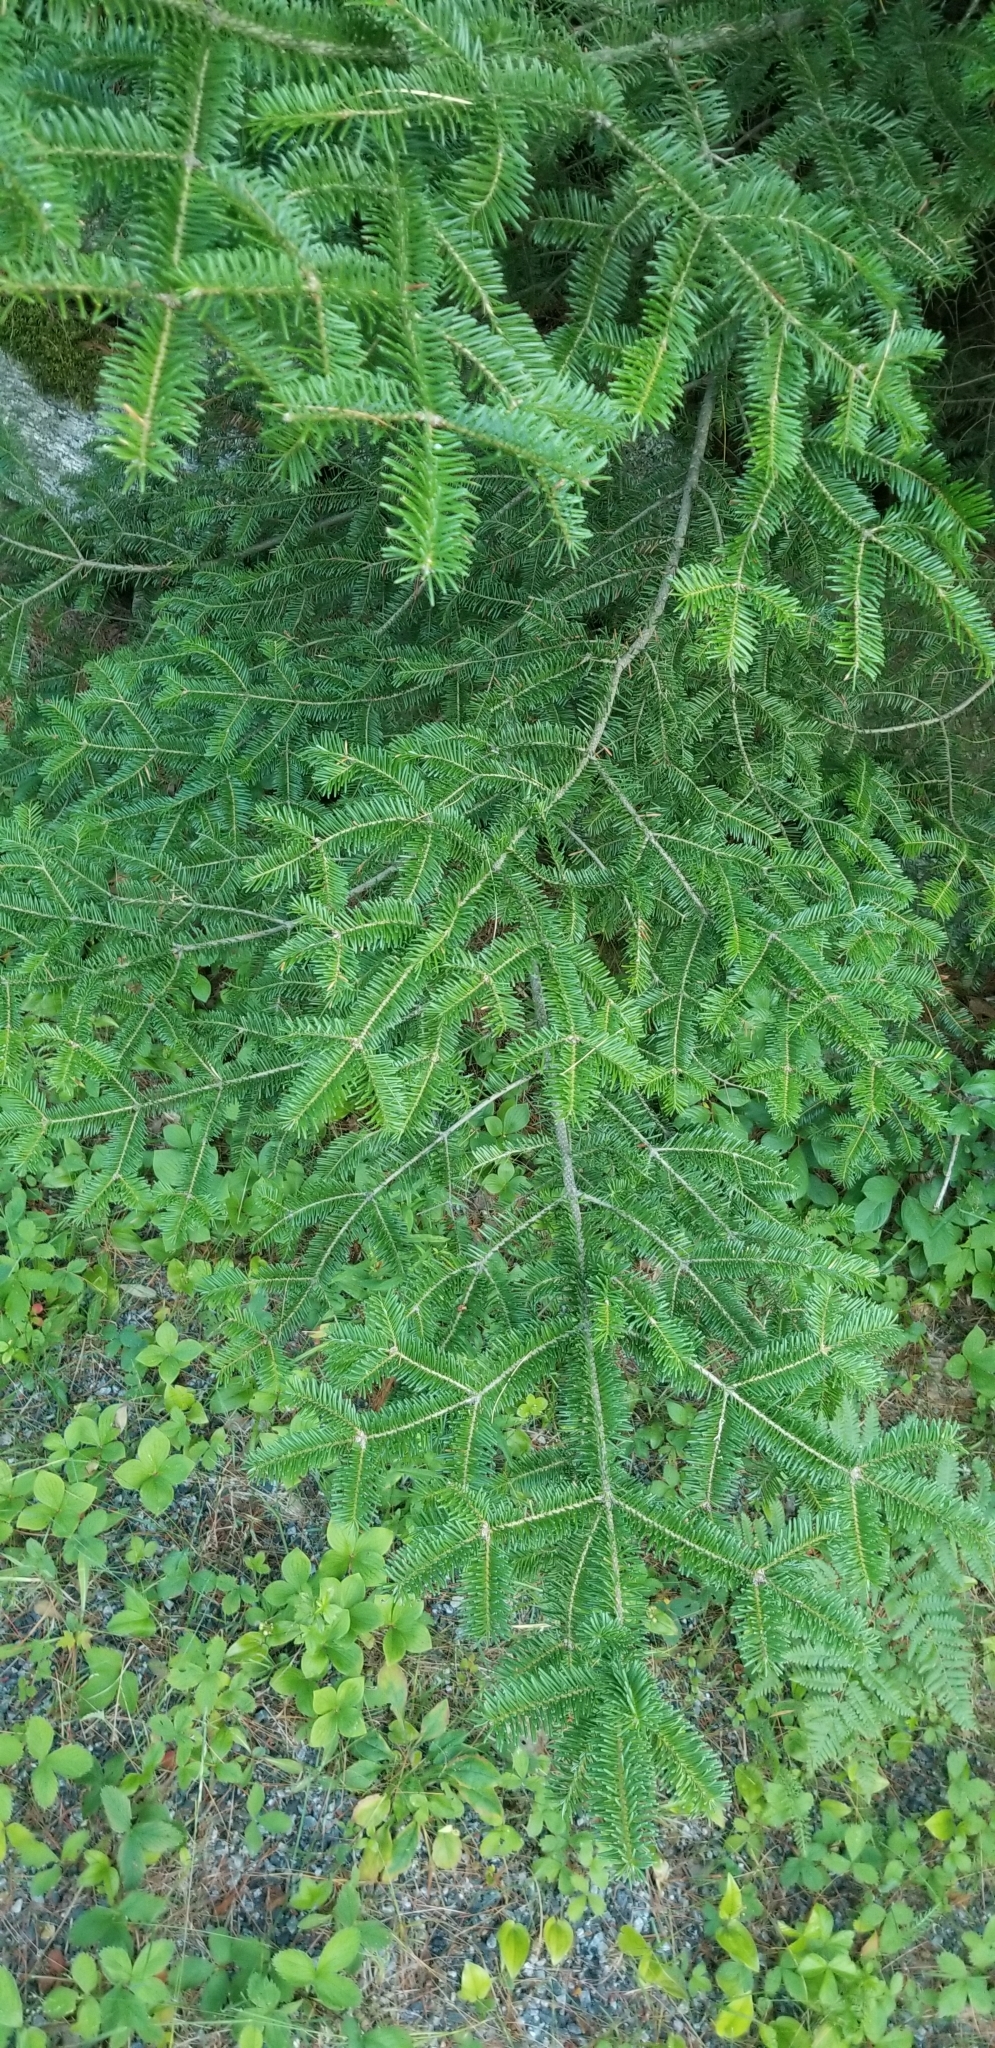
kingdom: Plantae
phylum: Tracheophyta
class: Pinopsida
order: Pinales
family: Pinaceae
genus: Abies
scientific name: Abies balsamea
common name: Balsam fir
